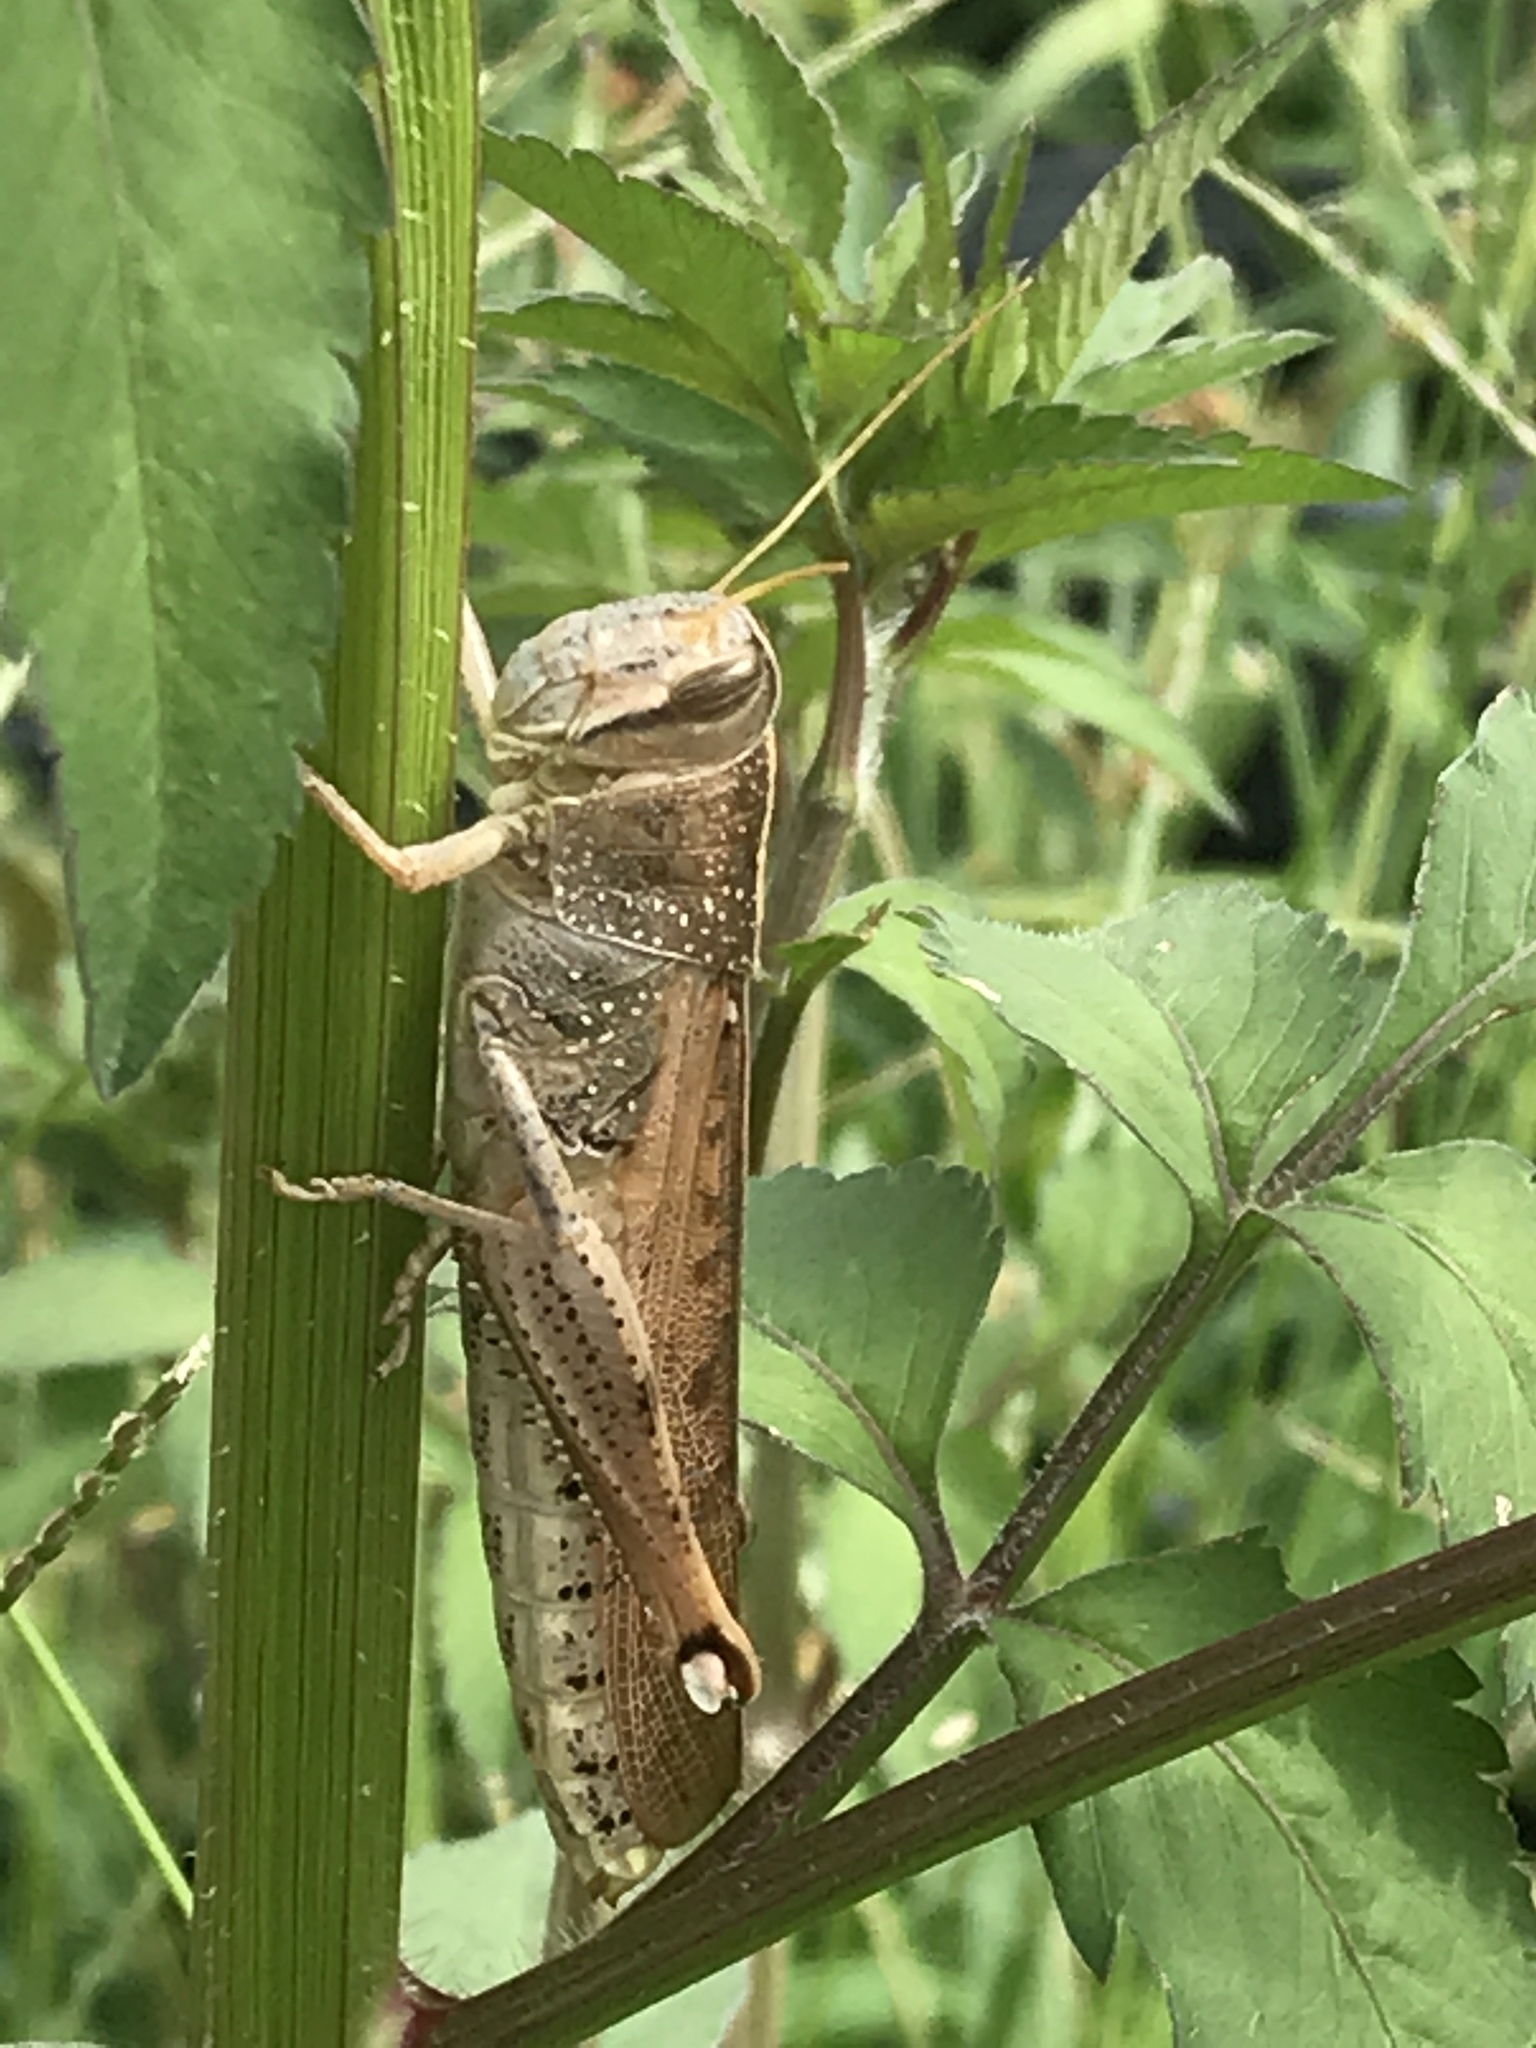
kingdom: Animalia
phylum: Arthropoda
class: Insecta
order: Orthoptera
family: Acrididae
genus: Schistocerca
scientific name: Schistocerca lineata
